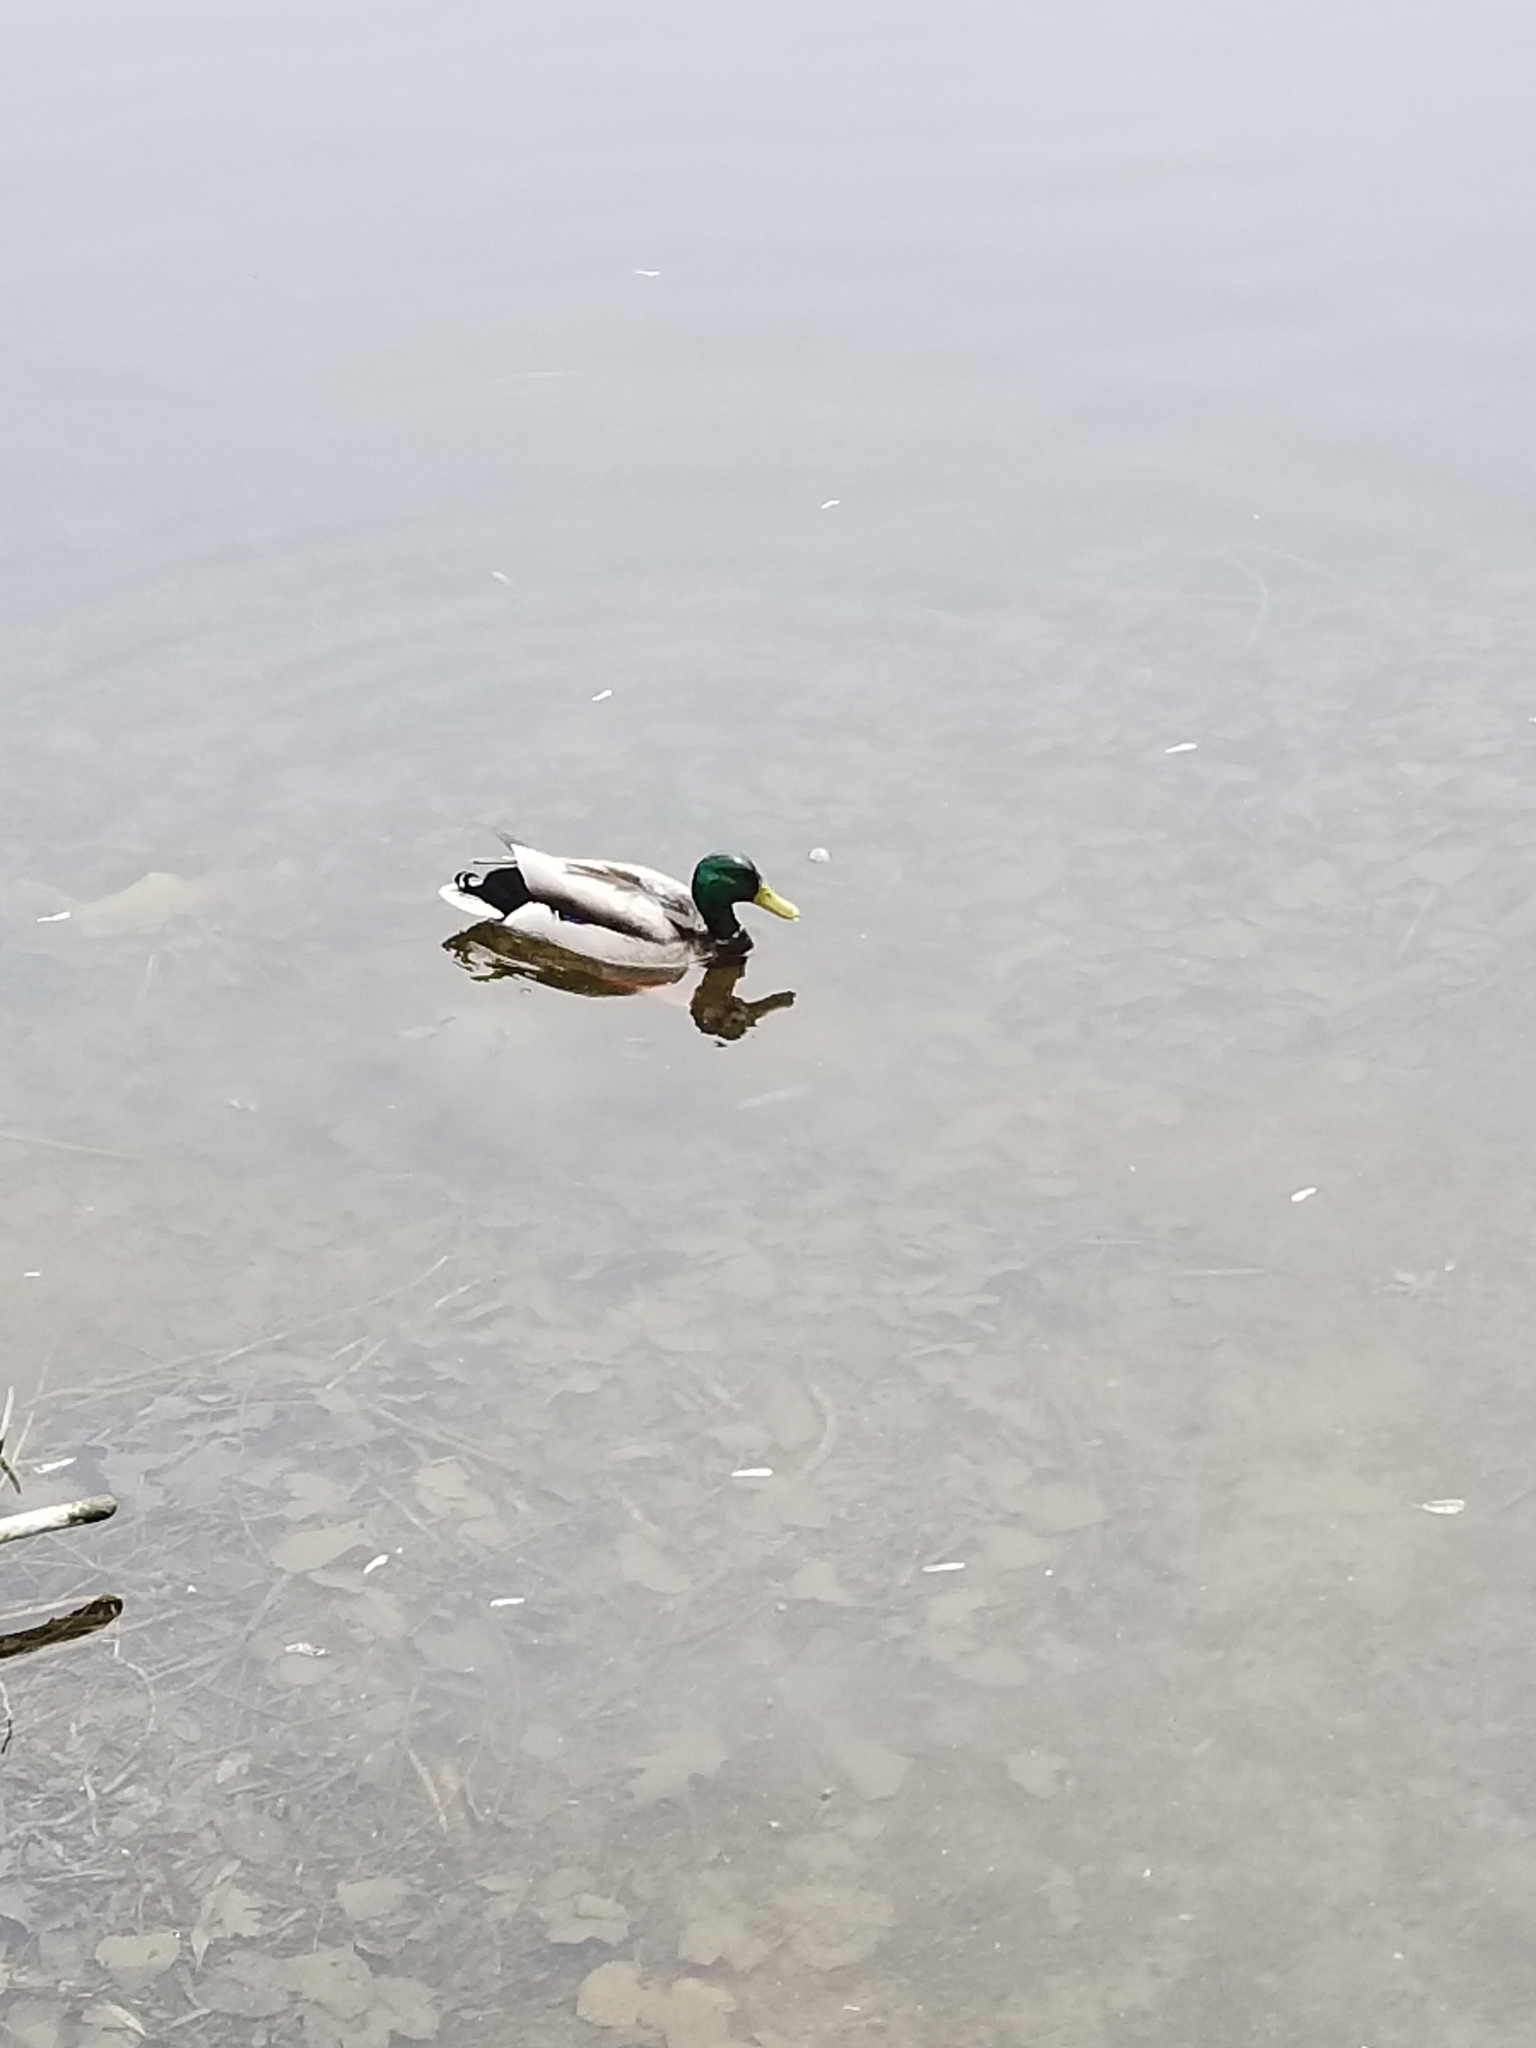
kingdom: Animalia
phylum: Chordata
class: Aves
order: Anseriformes
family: Anatidae
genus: Anas
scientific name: Anas platyrhynchos
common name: Mallard
